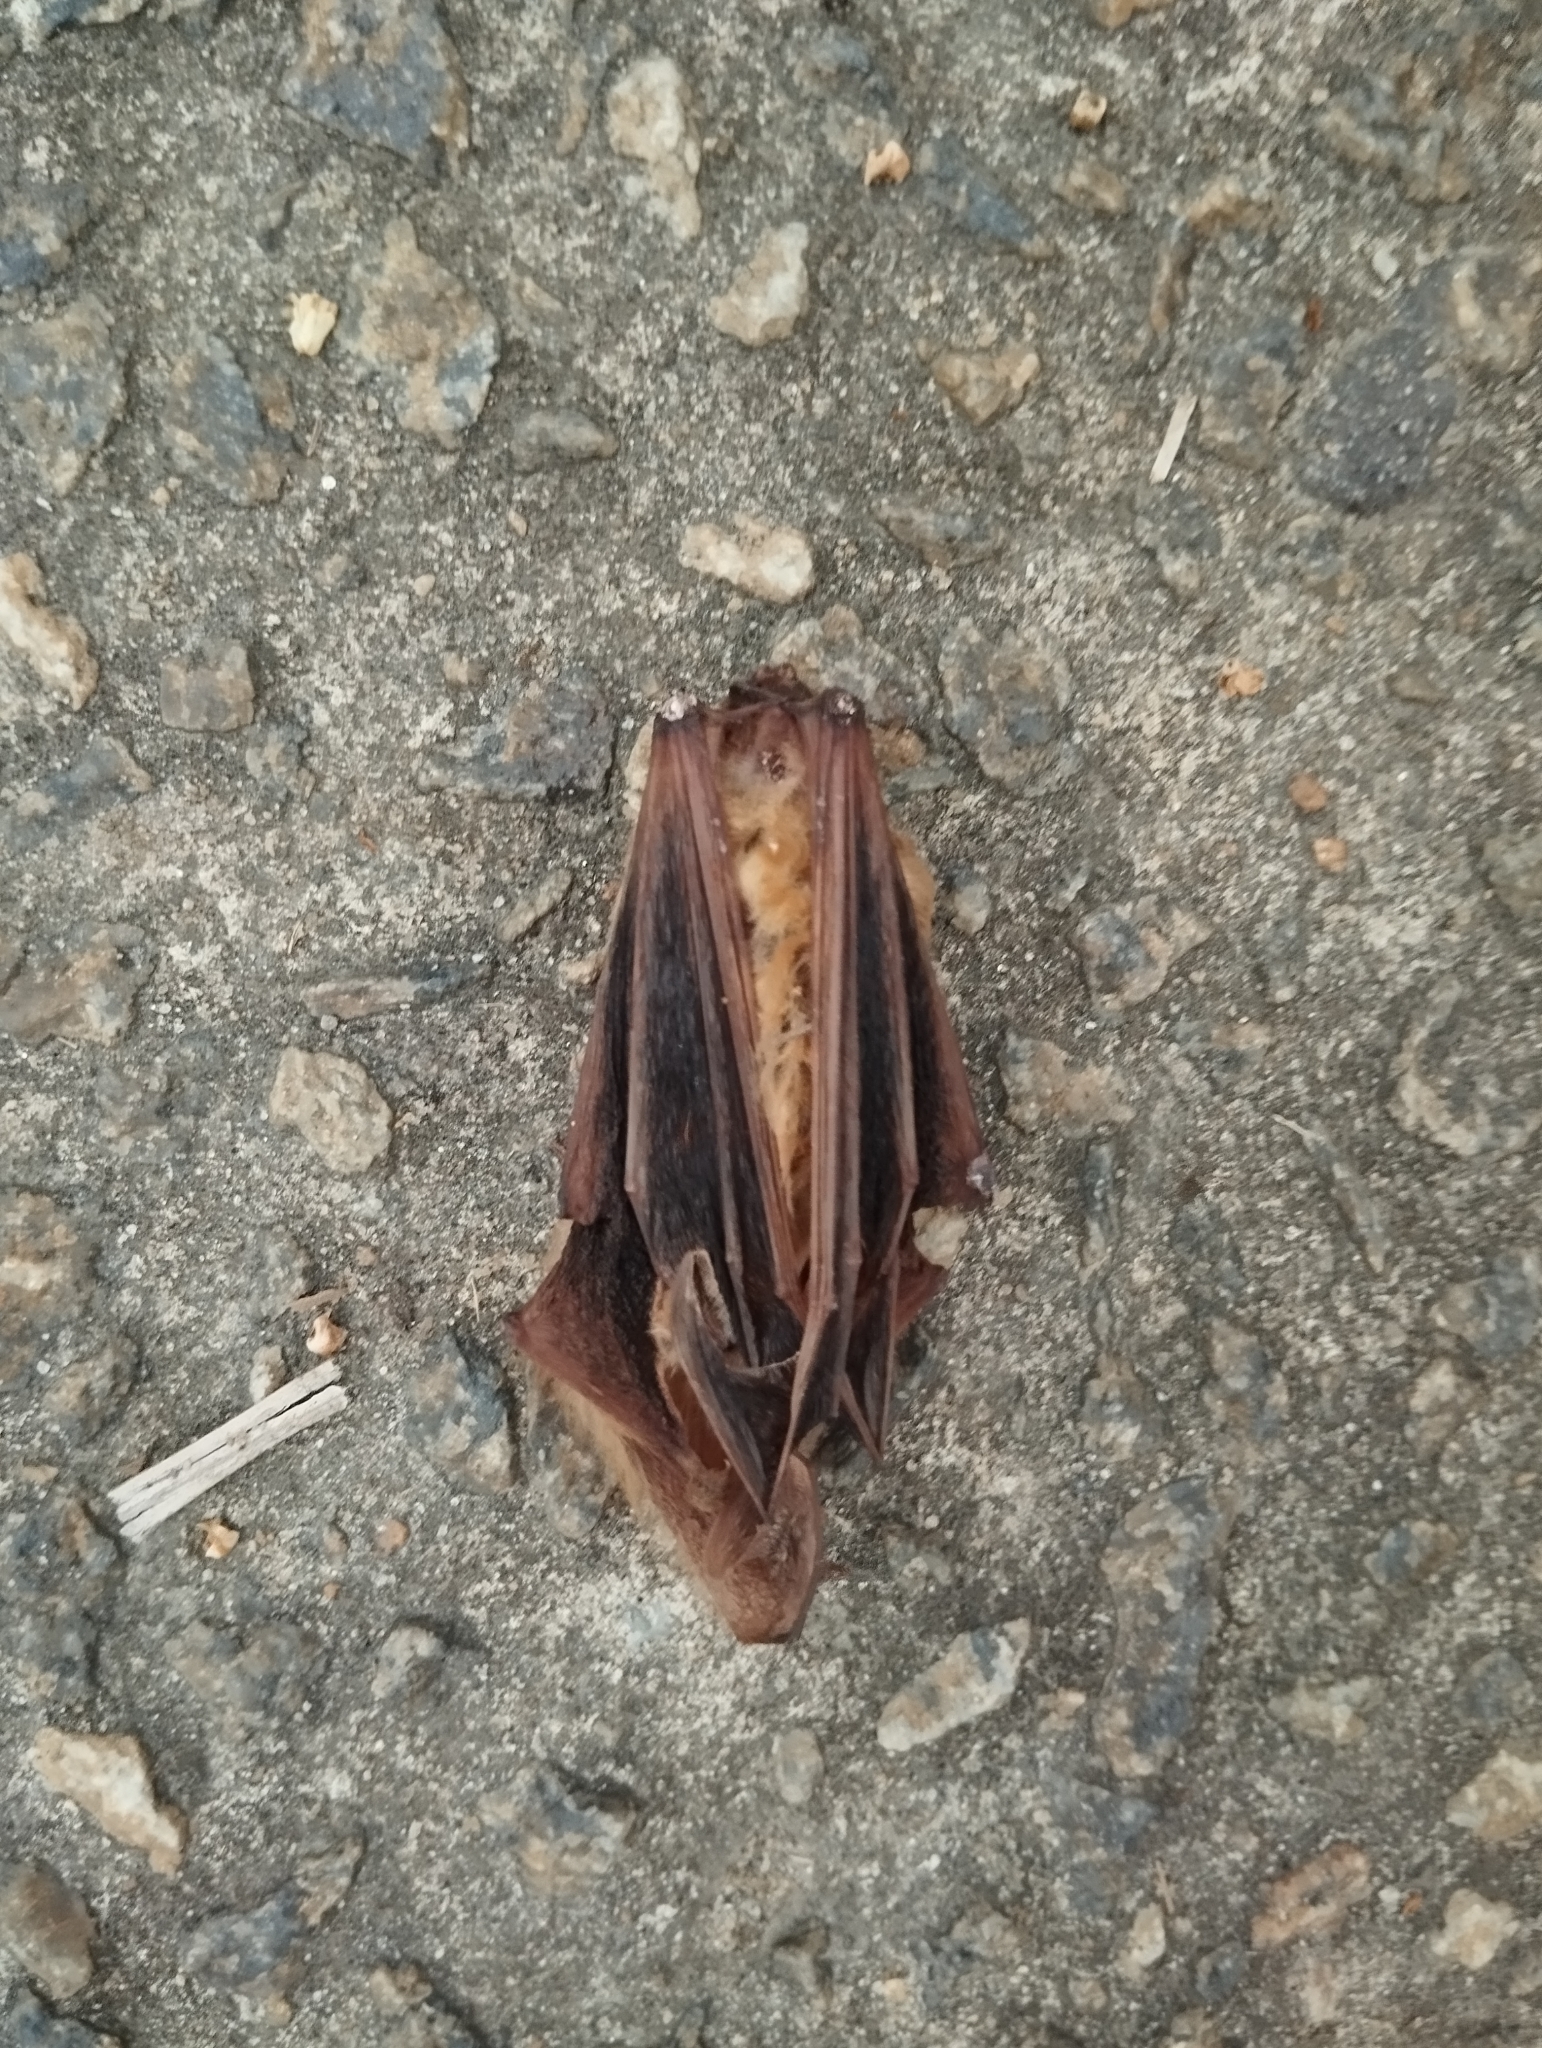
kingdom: Animalia
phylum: Chordata
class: Mammalia
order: Chiroptera
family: Vespertilionidae
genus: Dasypterus
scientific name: Dasypterus ega
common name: Southern yellow bat
